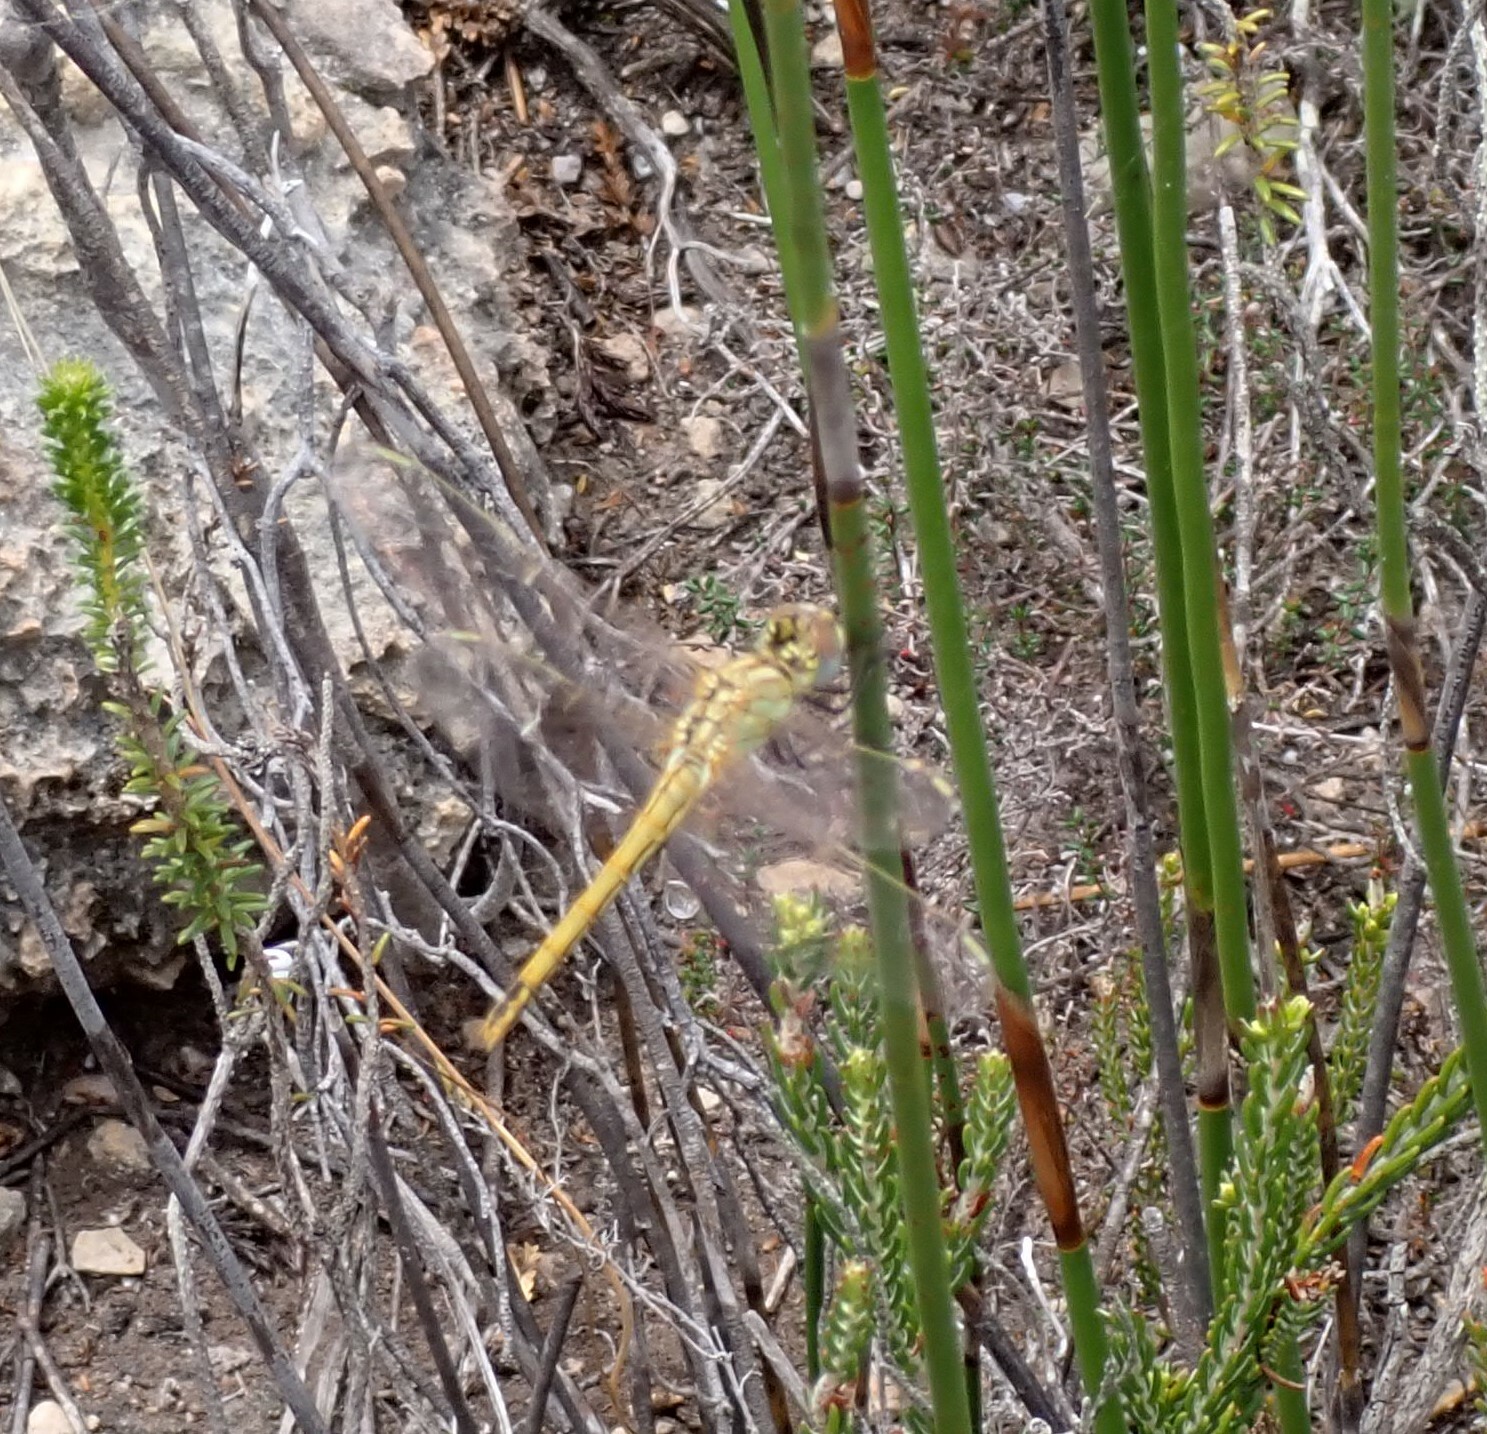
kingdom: Animalia
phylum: Arthropoda
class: Insecta
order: Odonata
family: Libellulidae
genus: Sympetrum
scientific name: Sympetrum fonscolombii
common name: Red-veined darter
